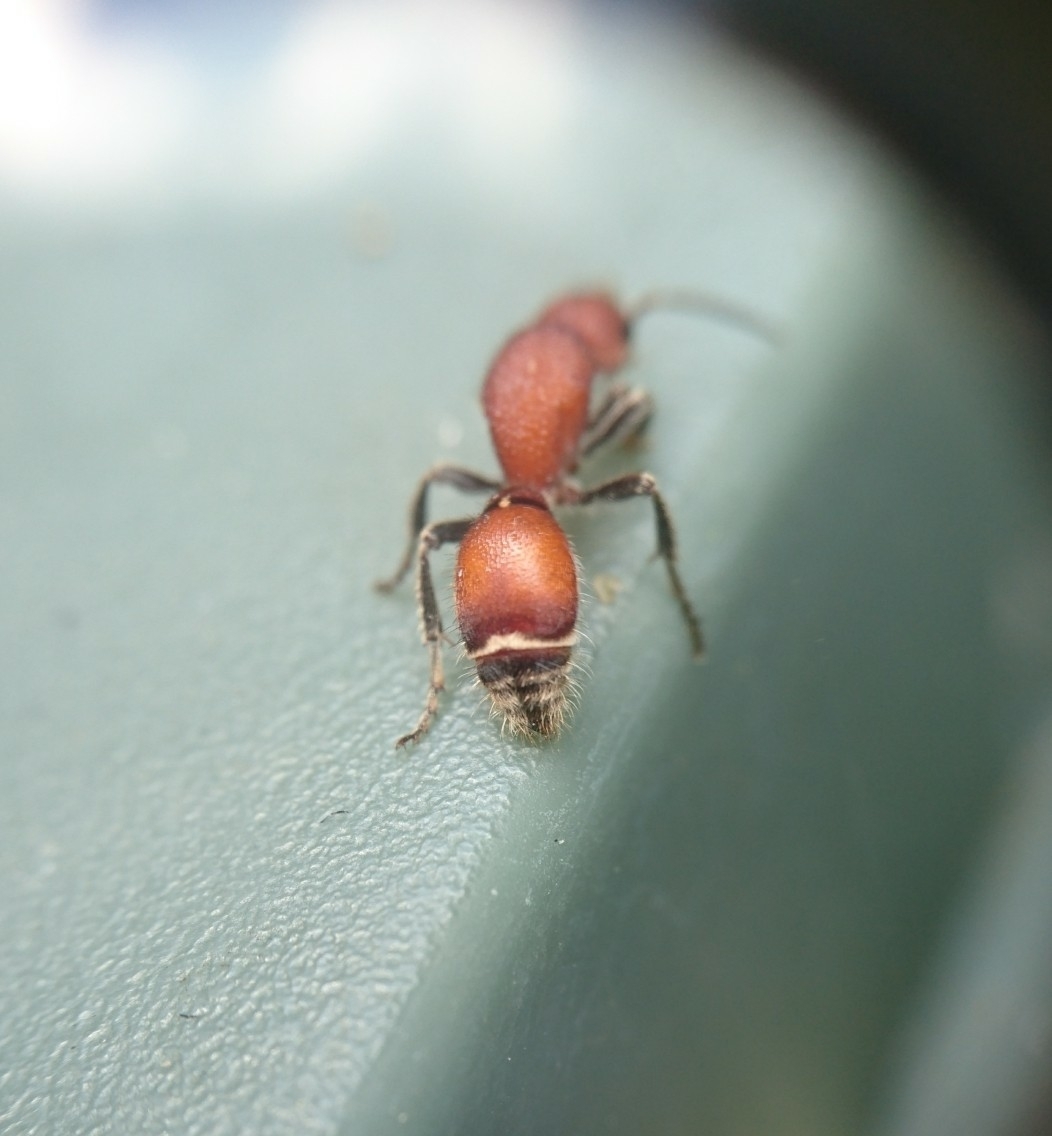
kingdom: Animalia
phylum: Arthropoda
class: Insecta
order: Hymenoptera
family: Mutillidae
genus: Sphaeropthalma
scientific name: Sphaeropthalma
